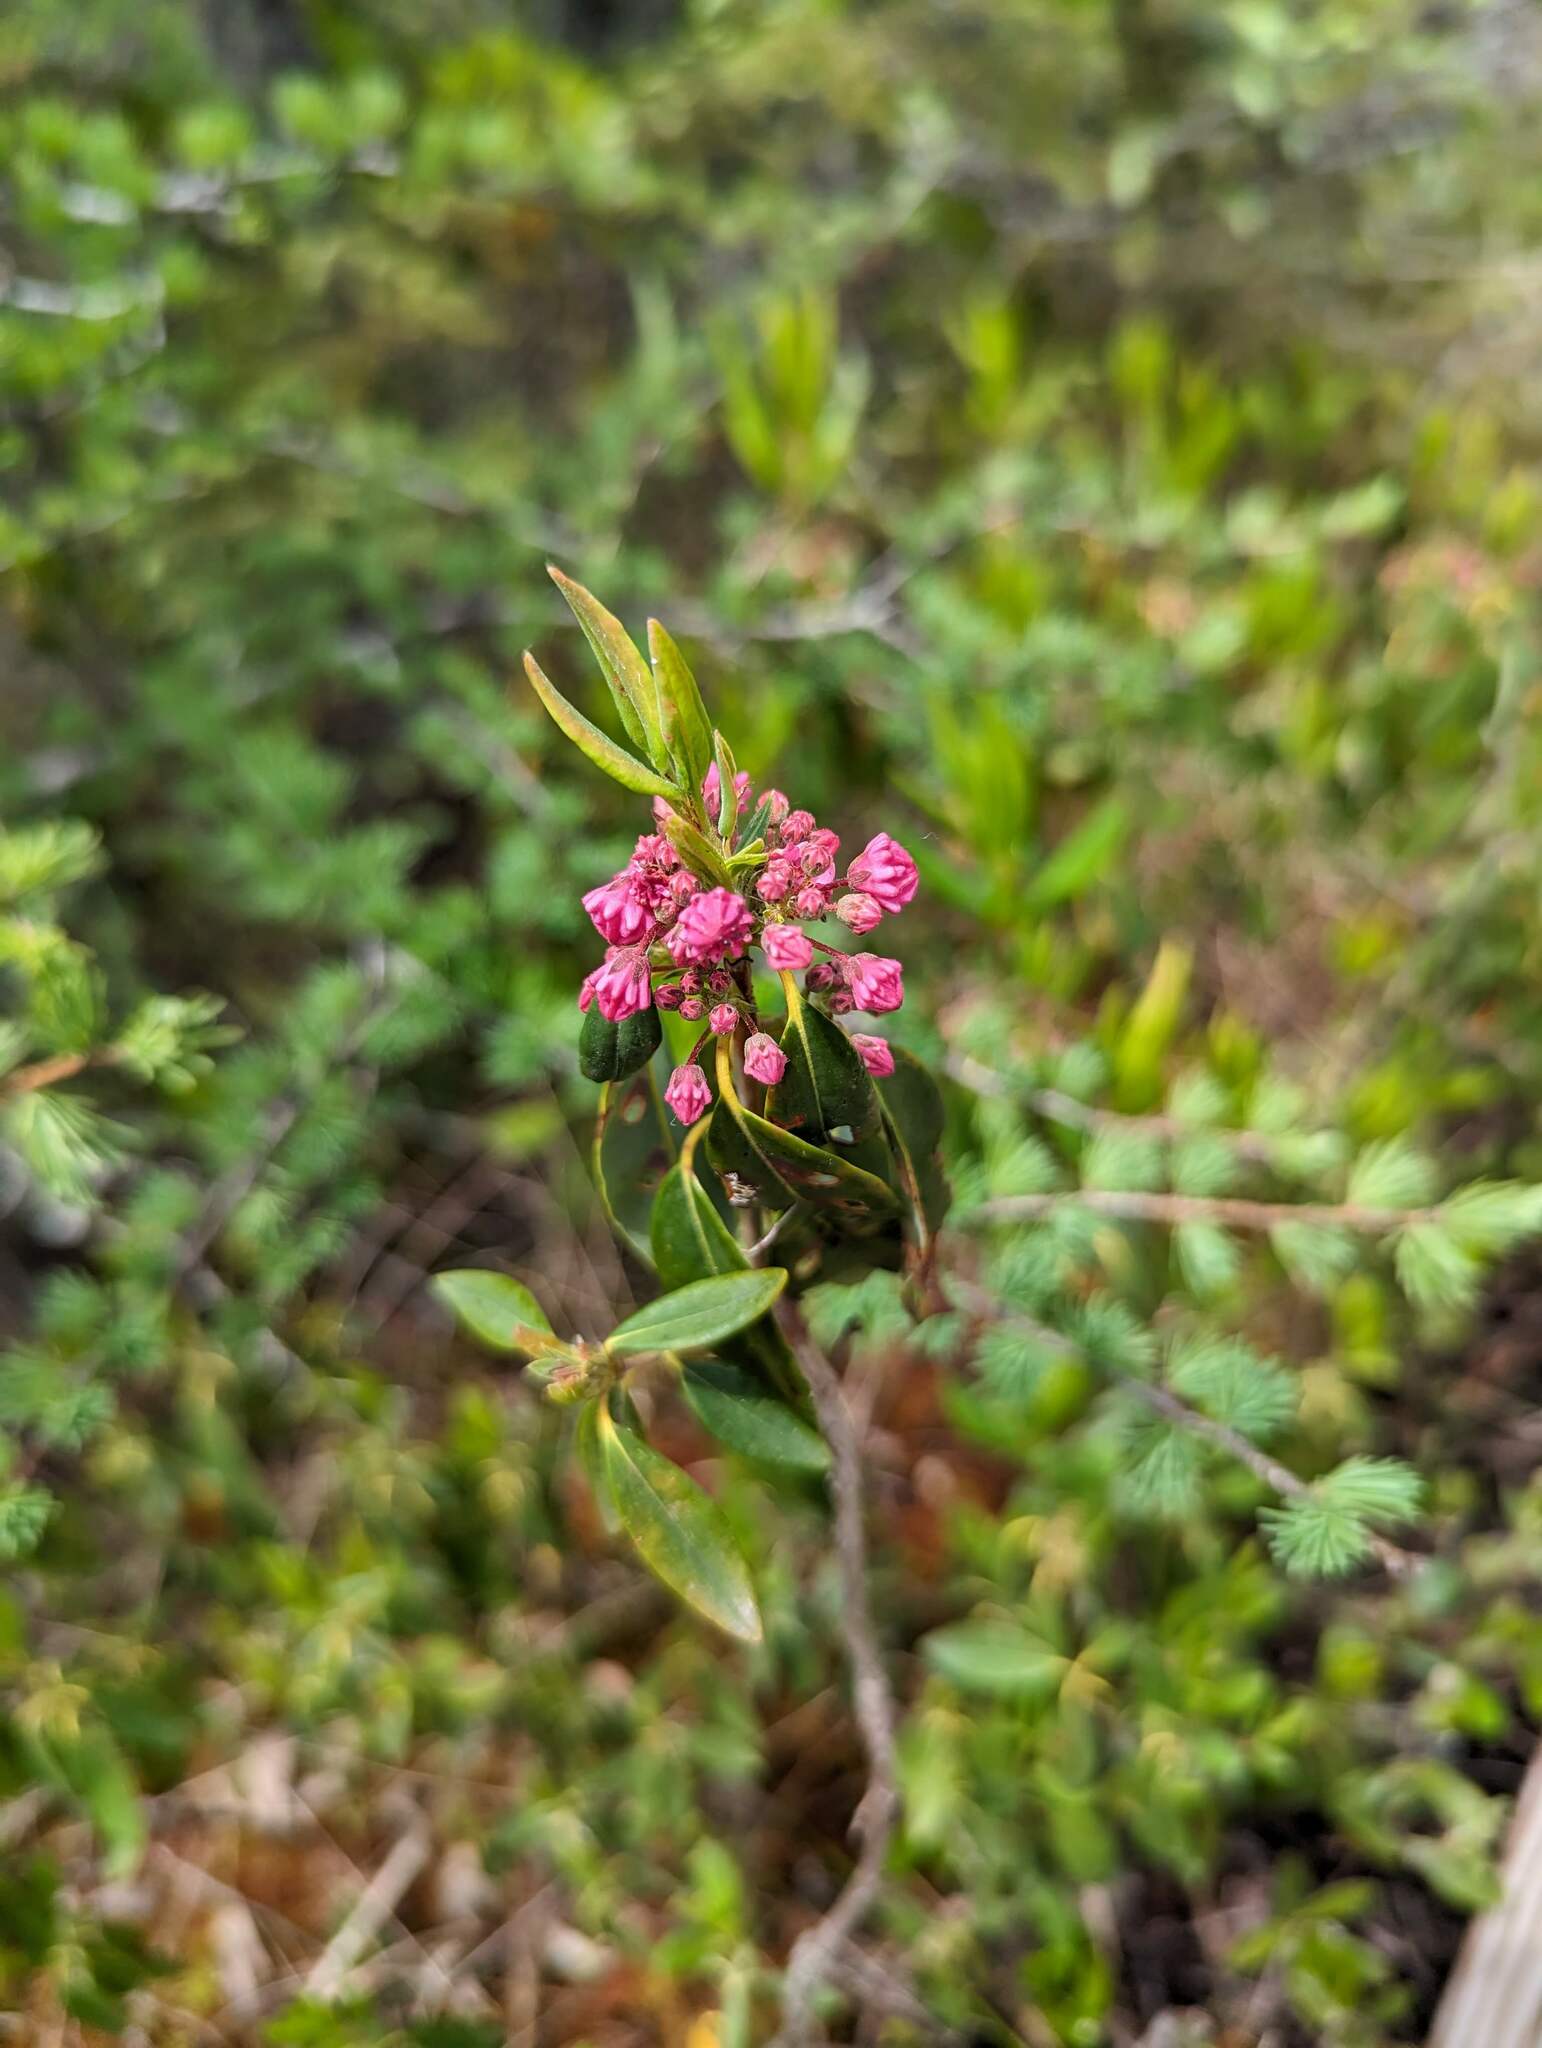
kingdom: Plantae
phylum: Tracheophyta
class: Magnoliopsida
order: Ericales
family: Ericaceae
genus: Kalmia
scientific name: Kalmia angustifolia
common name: Sheep-laurel
